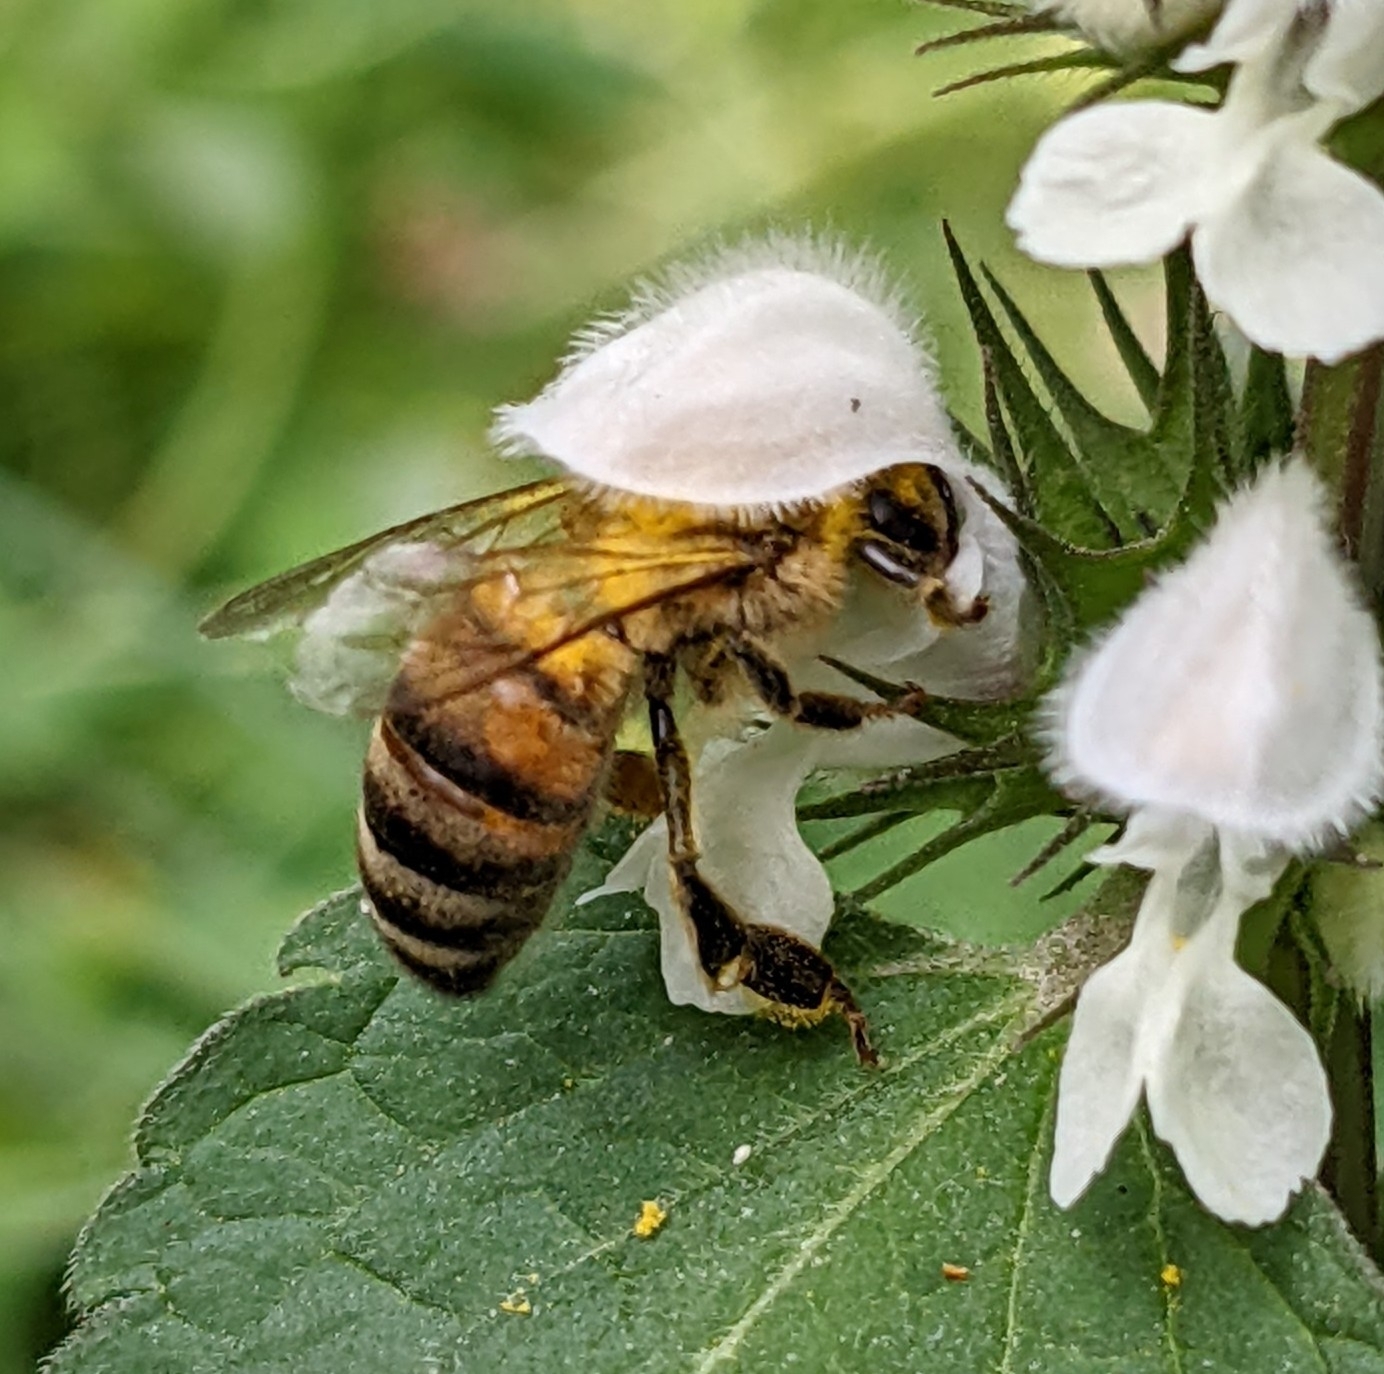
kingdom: Animalia
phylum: Arthropoda
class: Insecta
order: Hymenoptera
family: Apidae
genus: Apis
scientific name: Apis mellifera
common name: Honey bee
